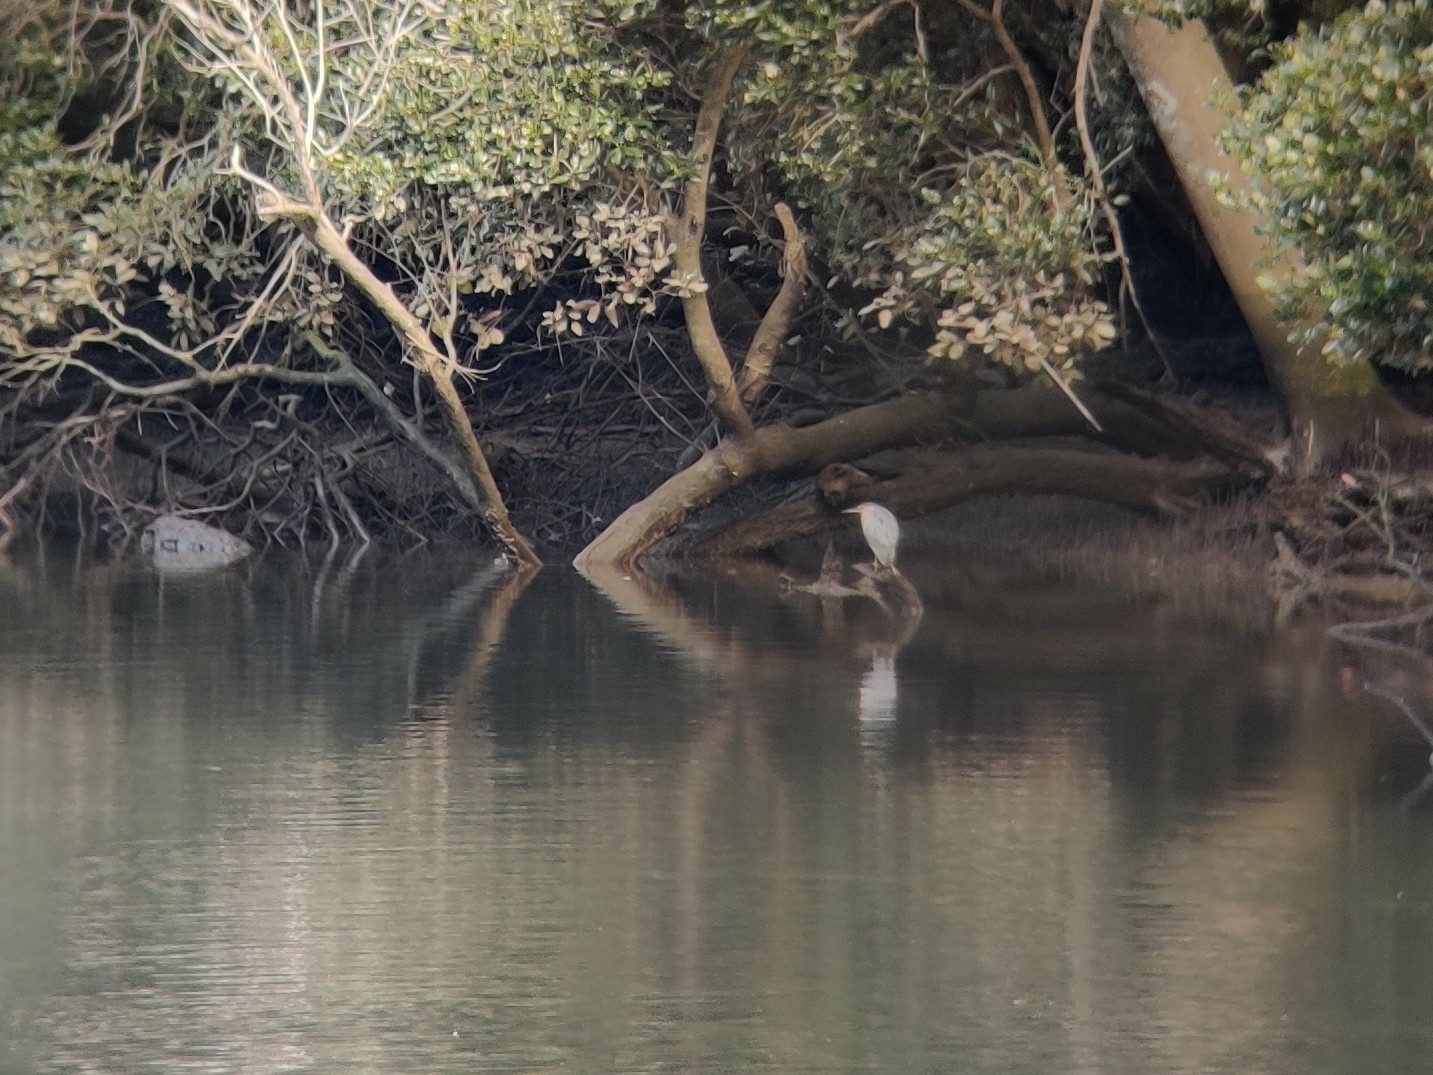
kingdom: Animalia
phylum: Chordata
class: Aves
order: Pelecaniformes
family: Ardeidae
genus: Butorides
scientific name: Butorides striata
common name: Striated heron
